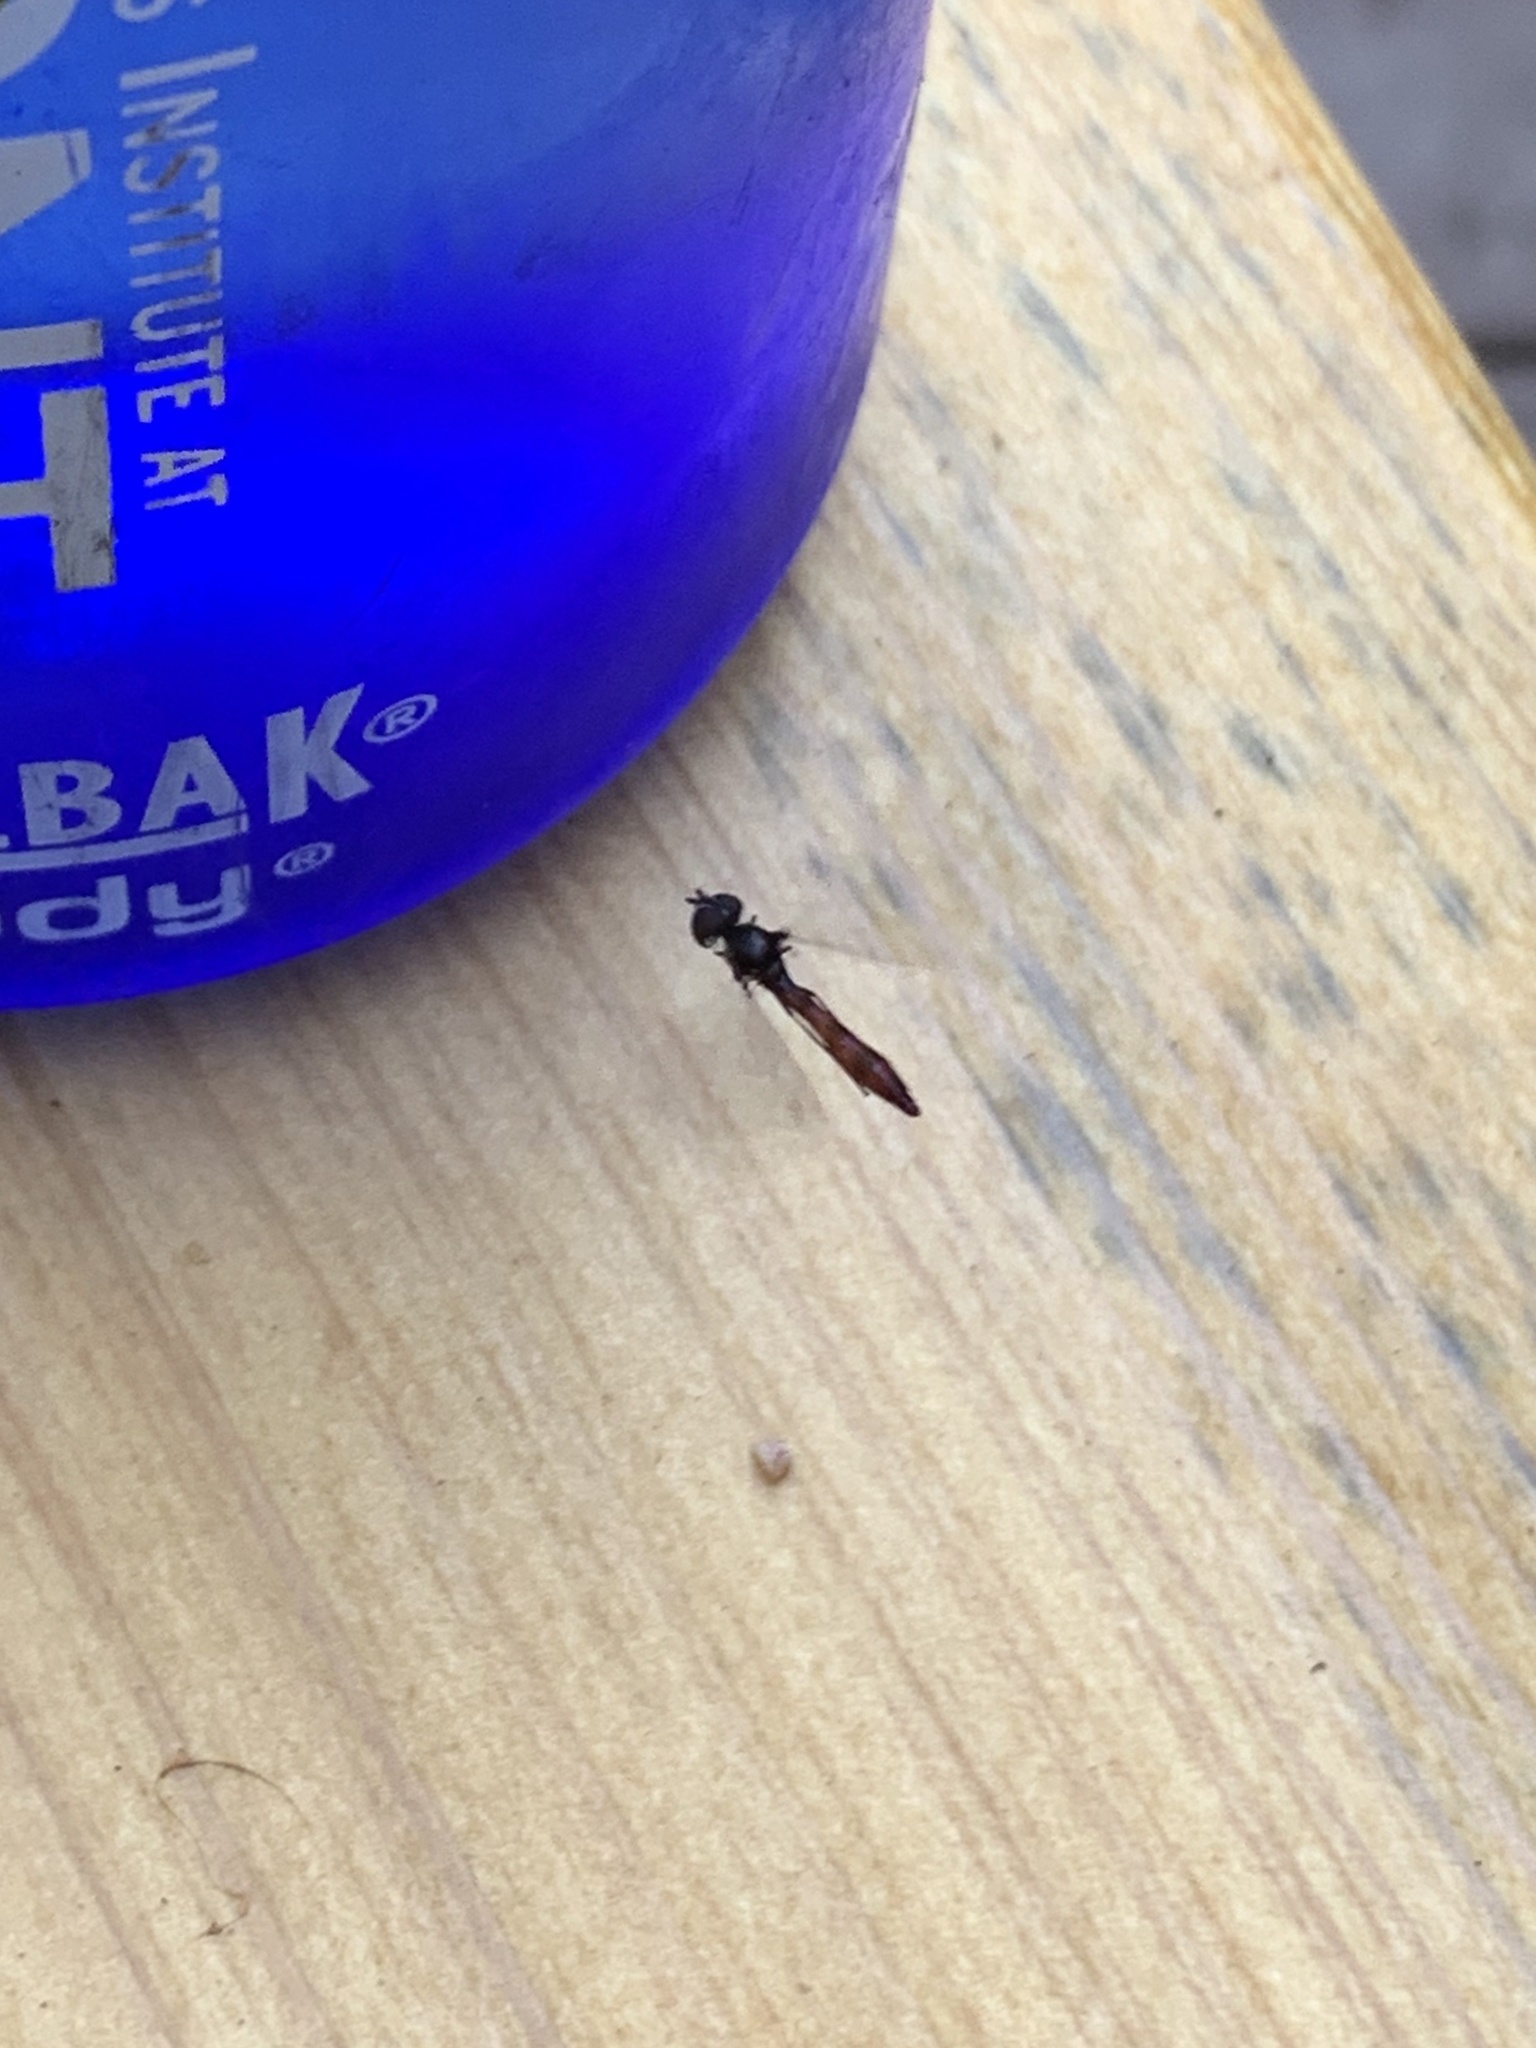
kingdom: Animalia
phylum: Arthropoda
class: Insecta
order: Diptera
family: Syrphidae
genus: Ocyptamus
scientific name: Ocyptamus fuscipennis
